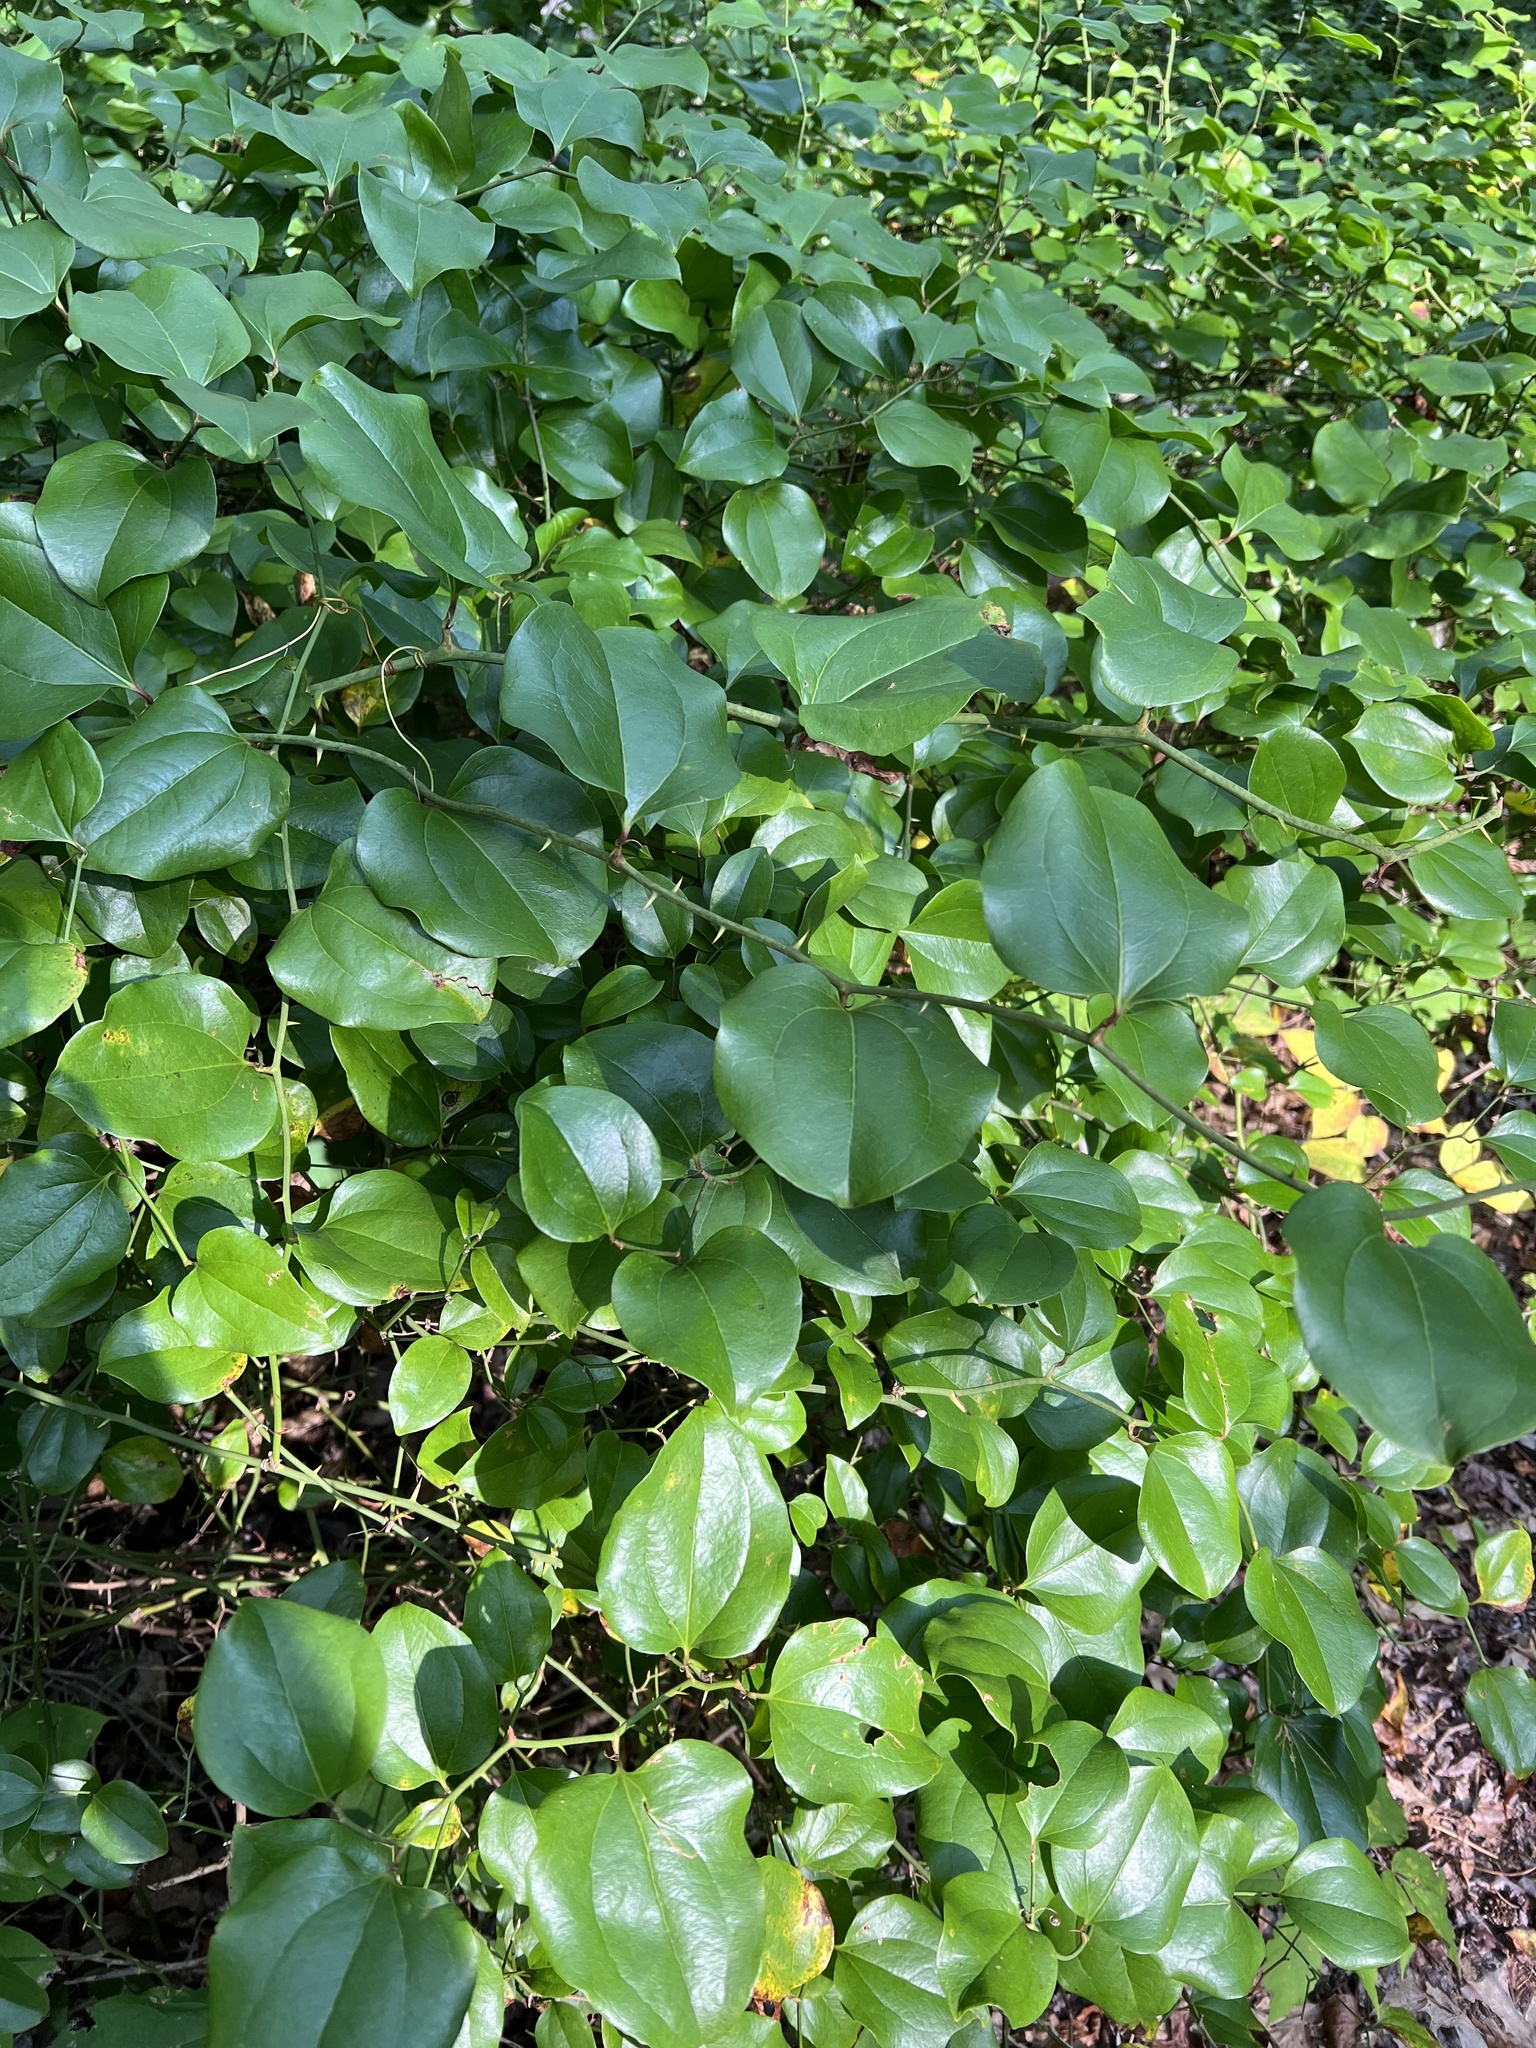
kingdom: Plantae
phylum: Tracheophyta
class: Liliopsida
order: Liliales
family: Smilacaceae
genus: Smilax
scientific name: Smilax rotundifolia
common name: Bullbriar
